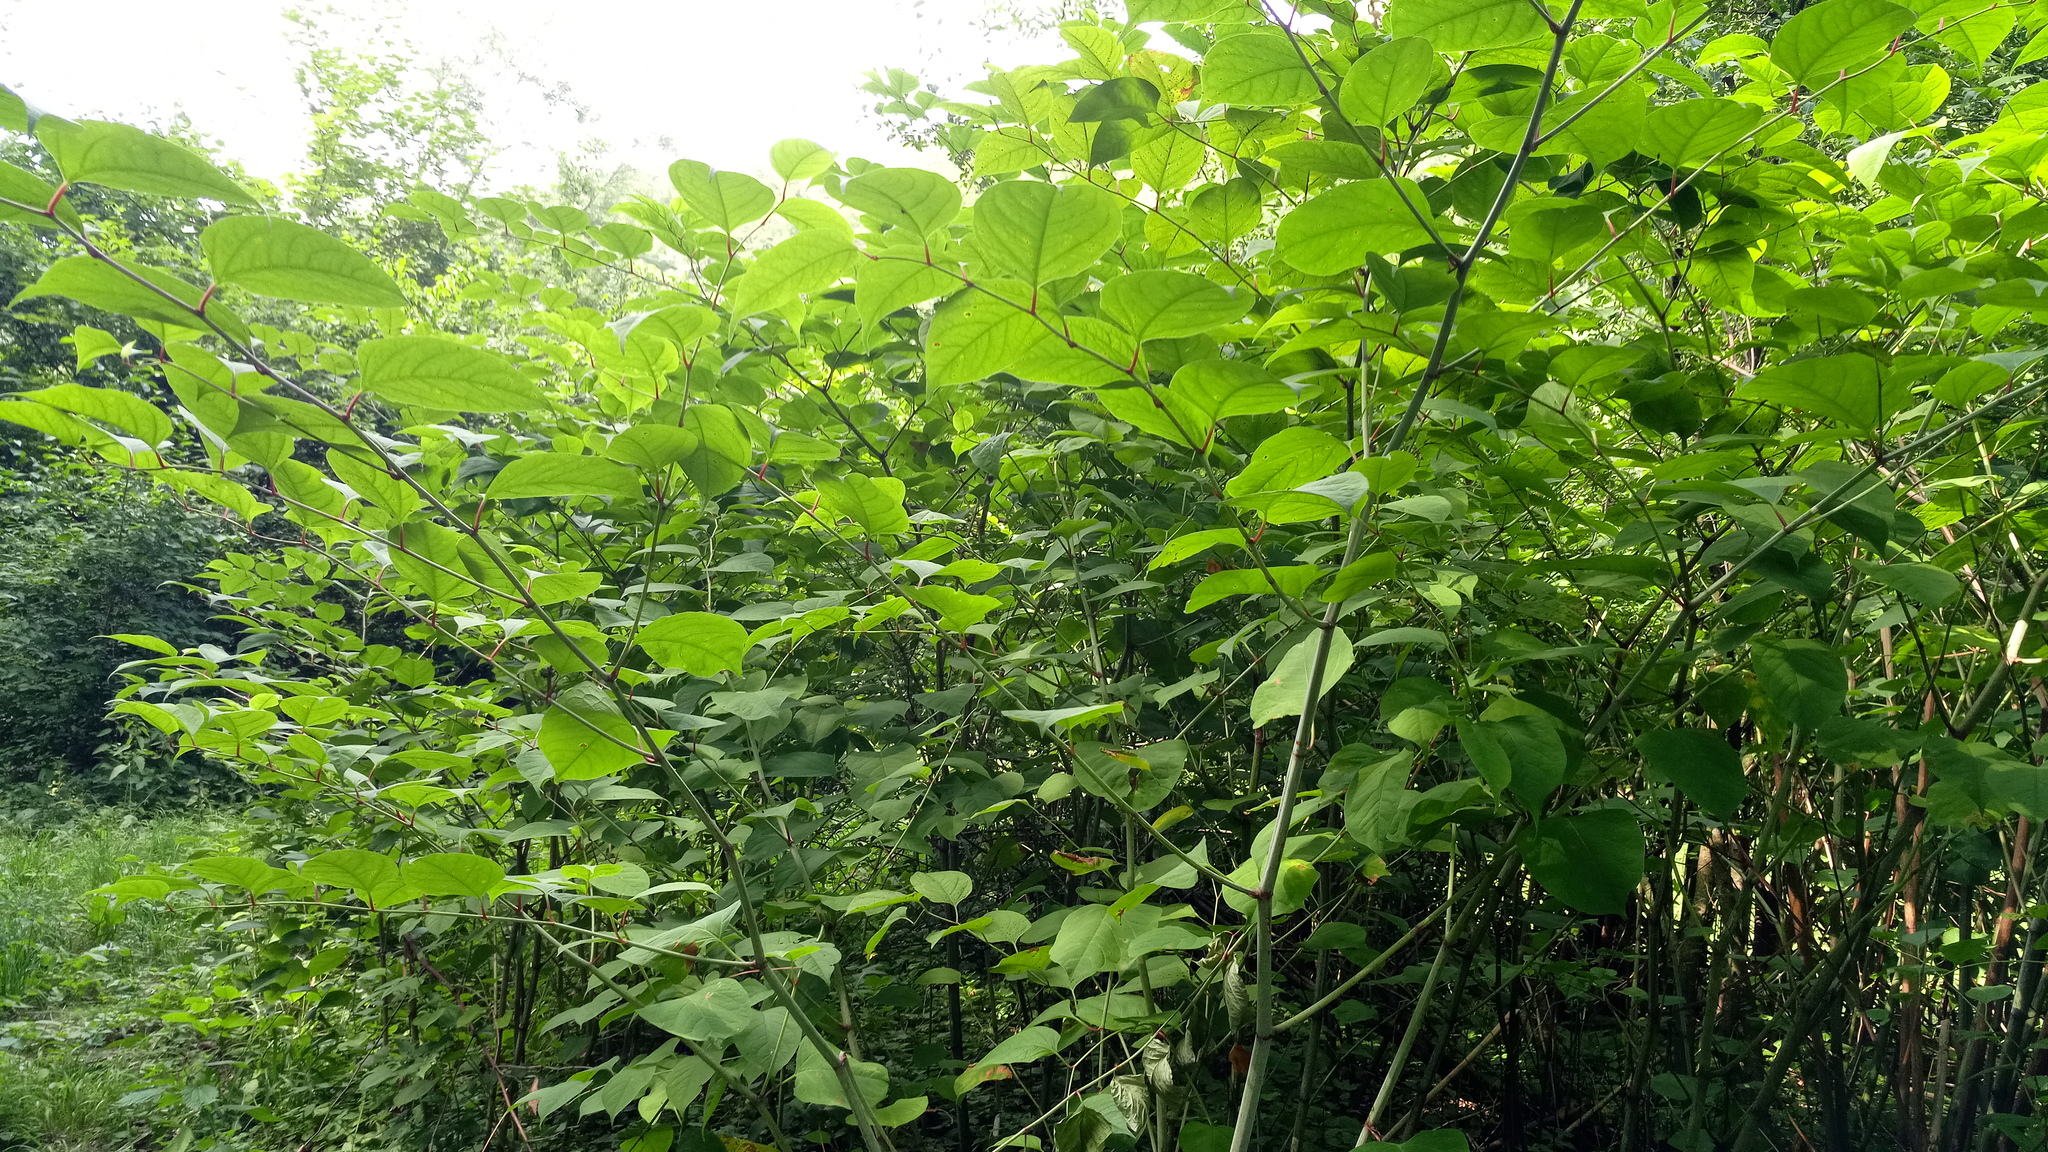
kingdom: Plantae
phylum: Tracheophyta
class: Magnoliopsida
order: Caryophyllales
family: Polygonaceae
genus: Reynoutria
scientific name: Reynoutria bohemica
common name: Bohemian knotweed
